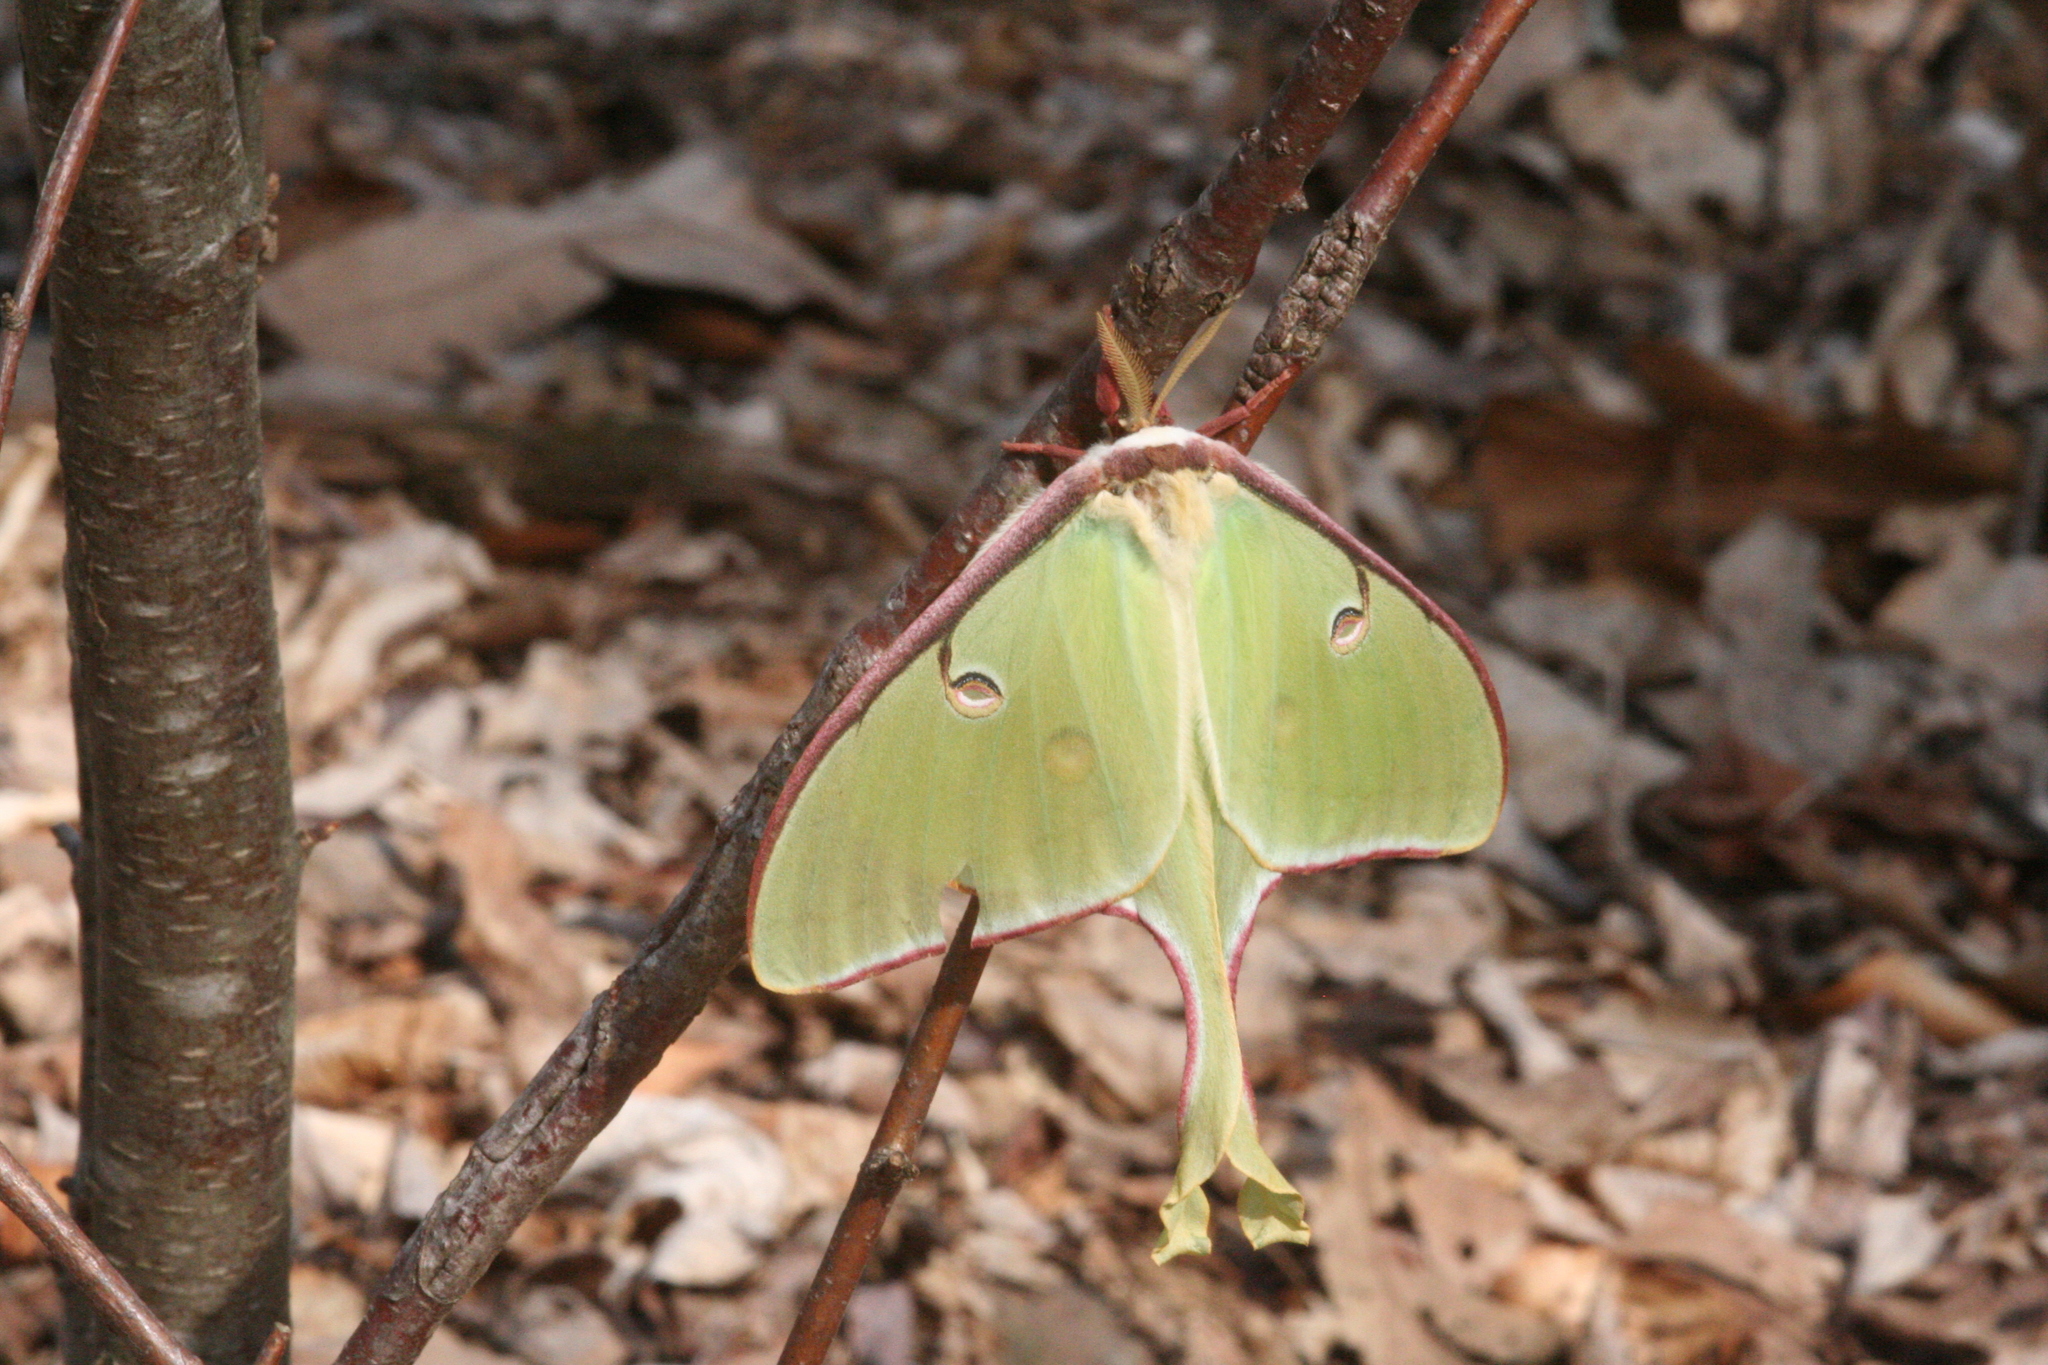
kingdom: Animalia
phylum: Arthropoda
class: Insecta
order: Lepidoptera
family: Saturniidae
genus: Actias
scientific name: Actias luna
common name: Luna moth
